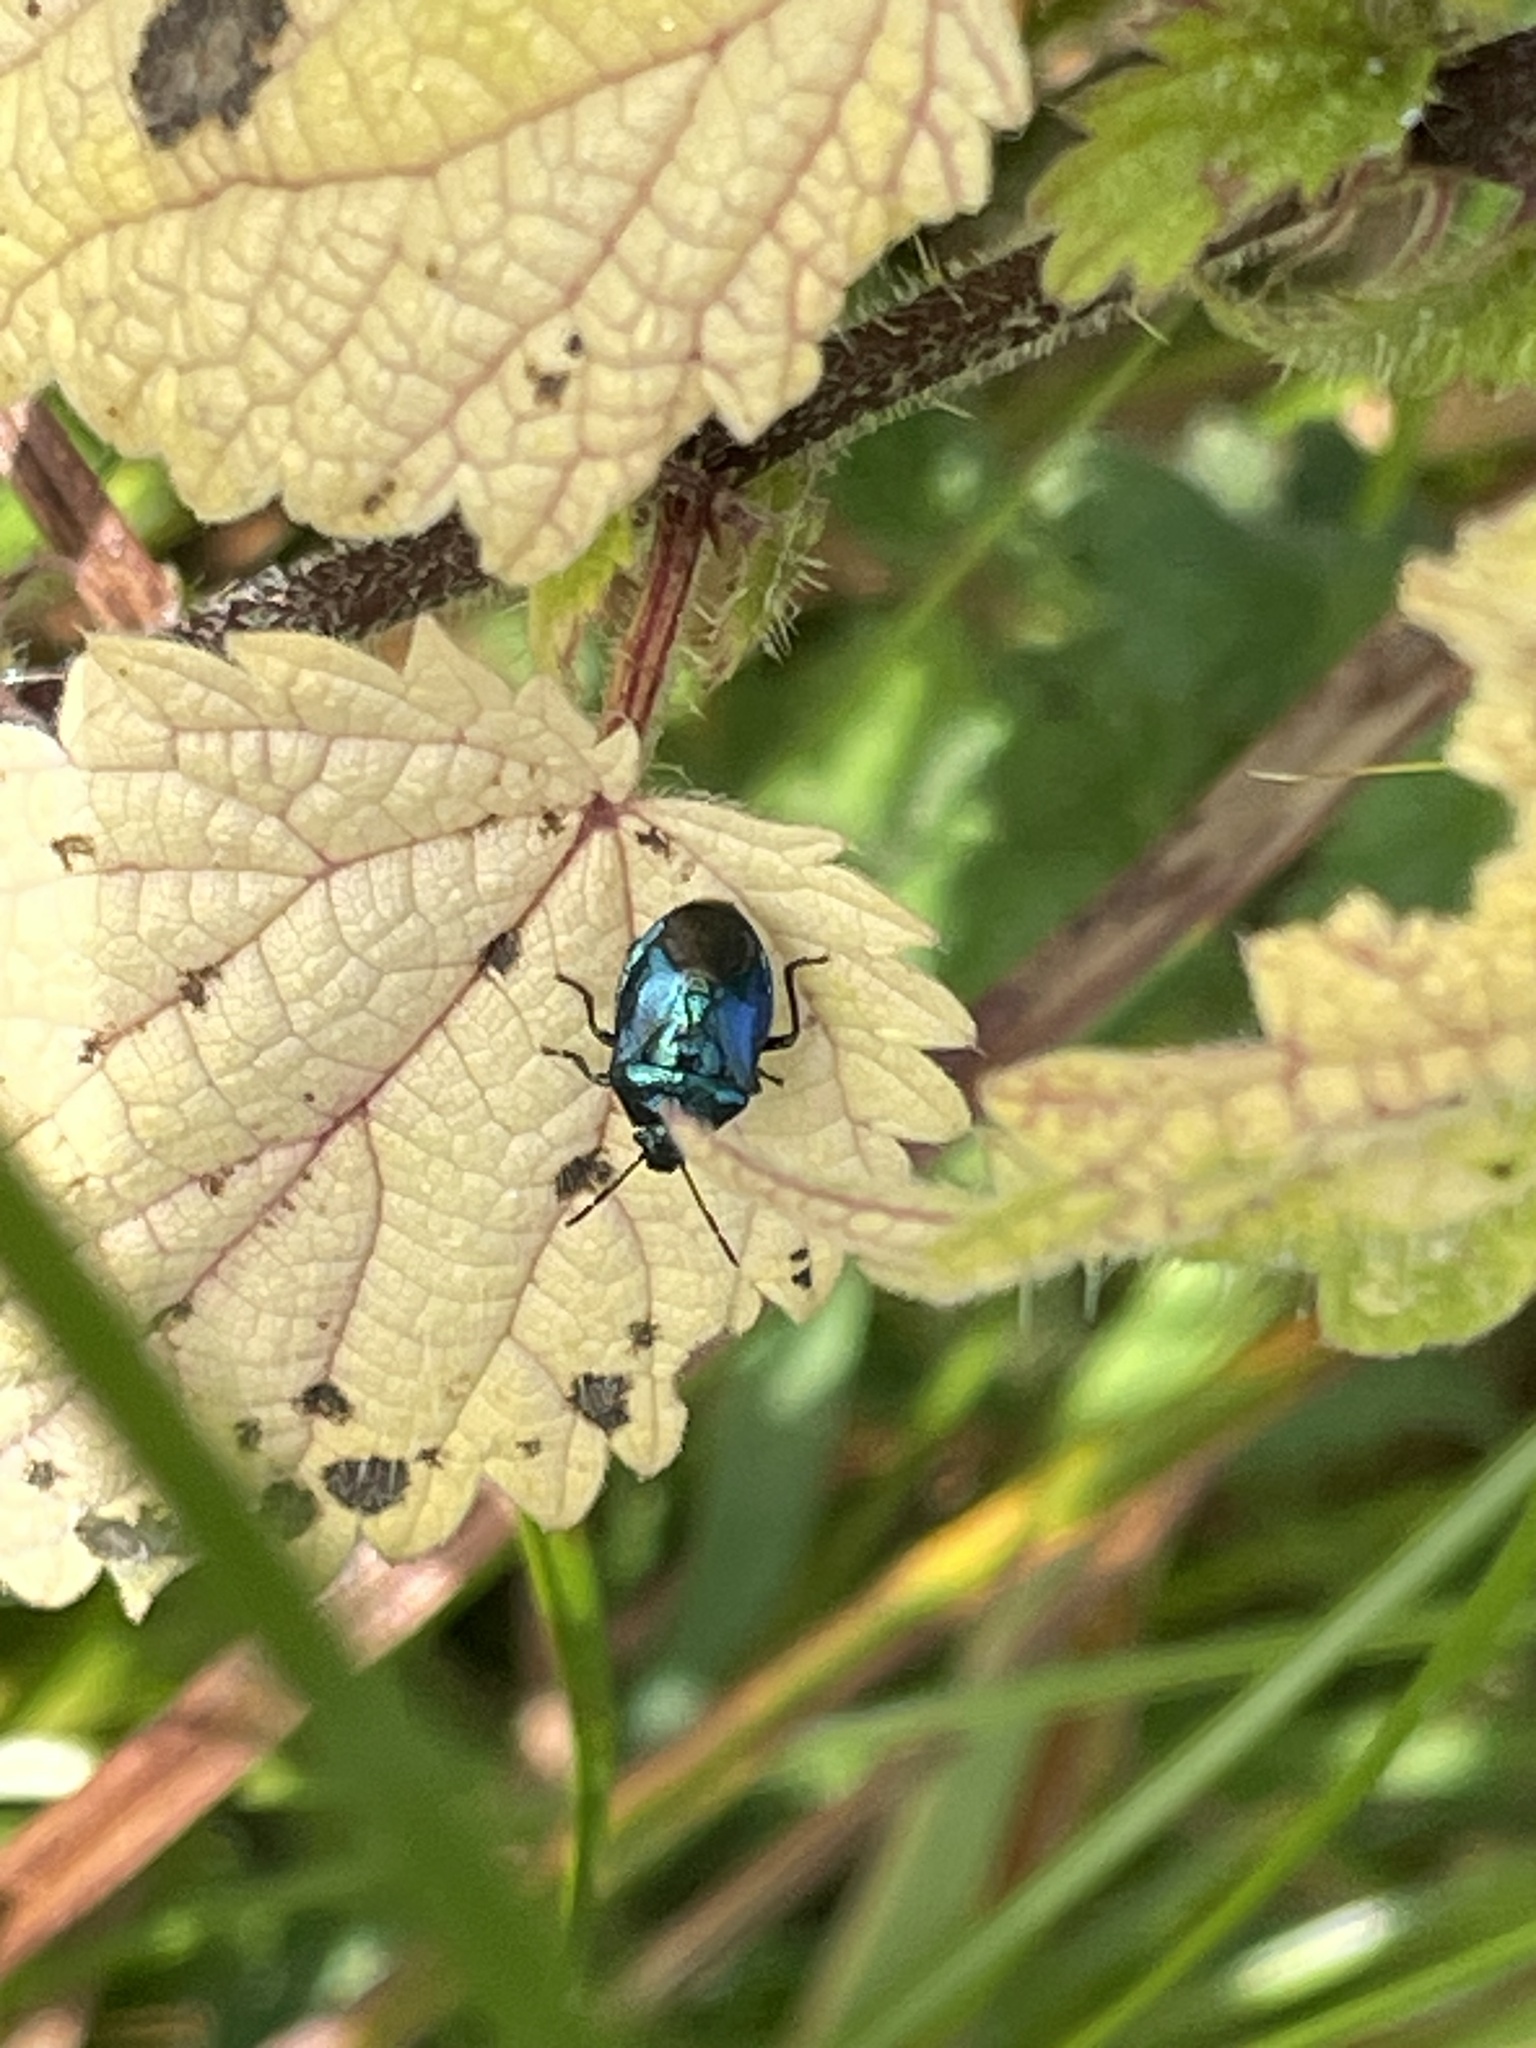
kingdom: Animalia
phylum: Arthropoda
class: Insecta
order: Hemiptera
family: Pentatomidae
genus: Zicrona
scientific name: Zicrona caerulea
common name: Blue shieldbug
